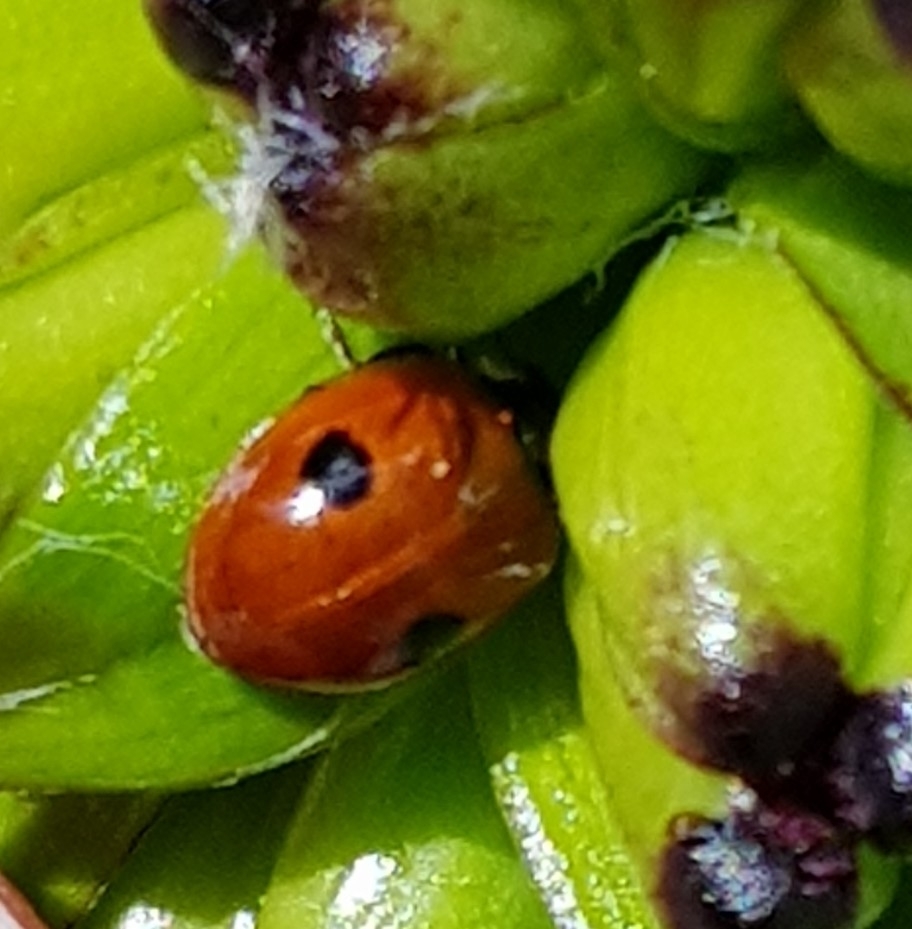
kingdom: Animalia
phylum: Arthropoda
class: Insecta
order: Coleoptera
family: Coccinellidae
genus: Adalia
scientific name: Adalia bipunctata
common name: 2-spot ladybird
